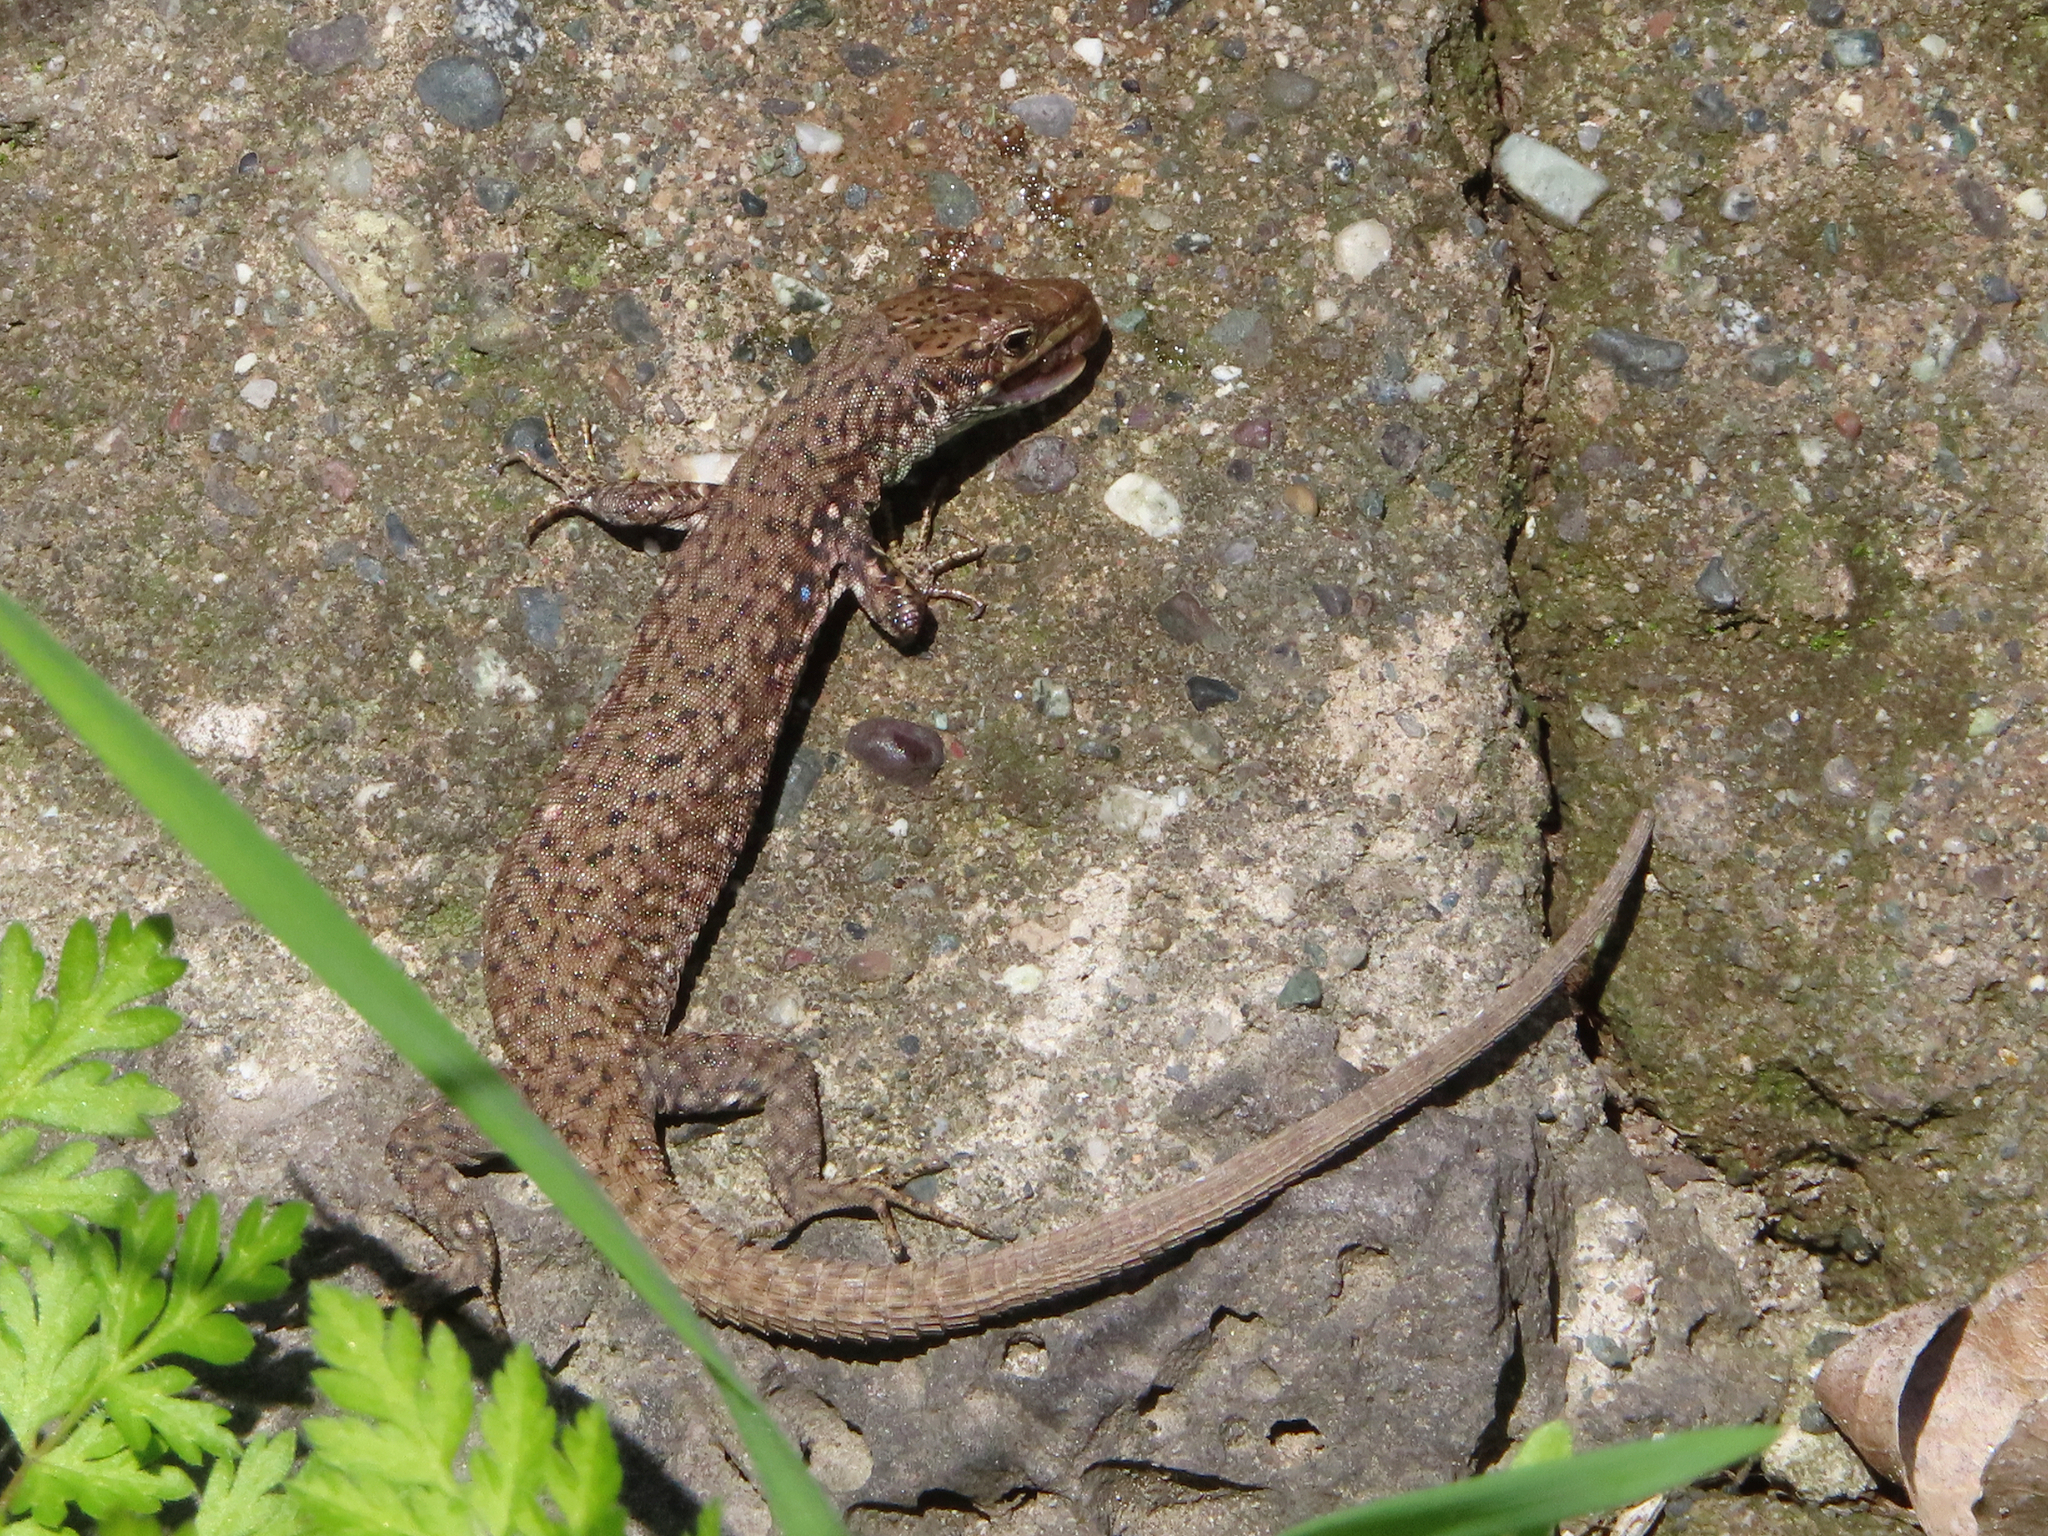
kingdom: Animalia
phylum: Chordata
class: Squamata
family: Lacertidae
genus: Darevskia
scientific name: Darevskia
